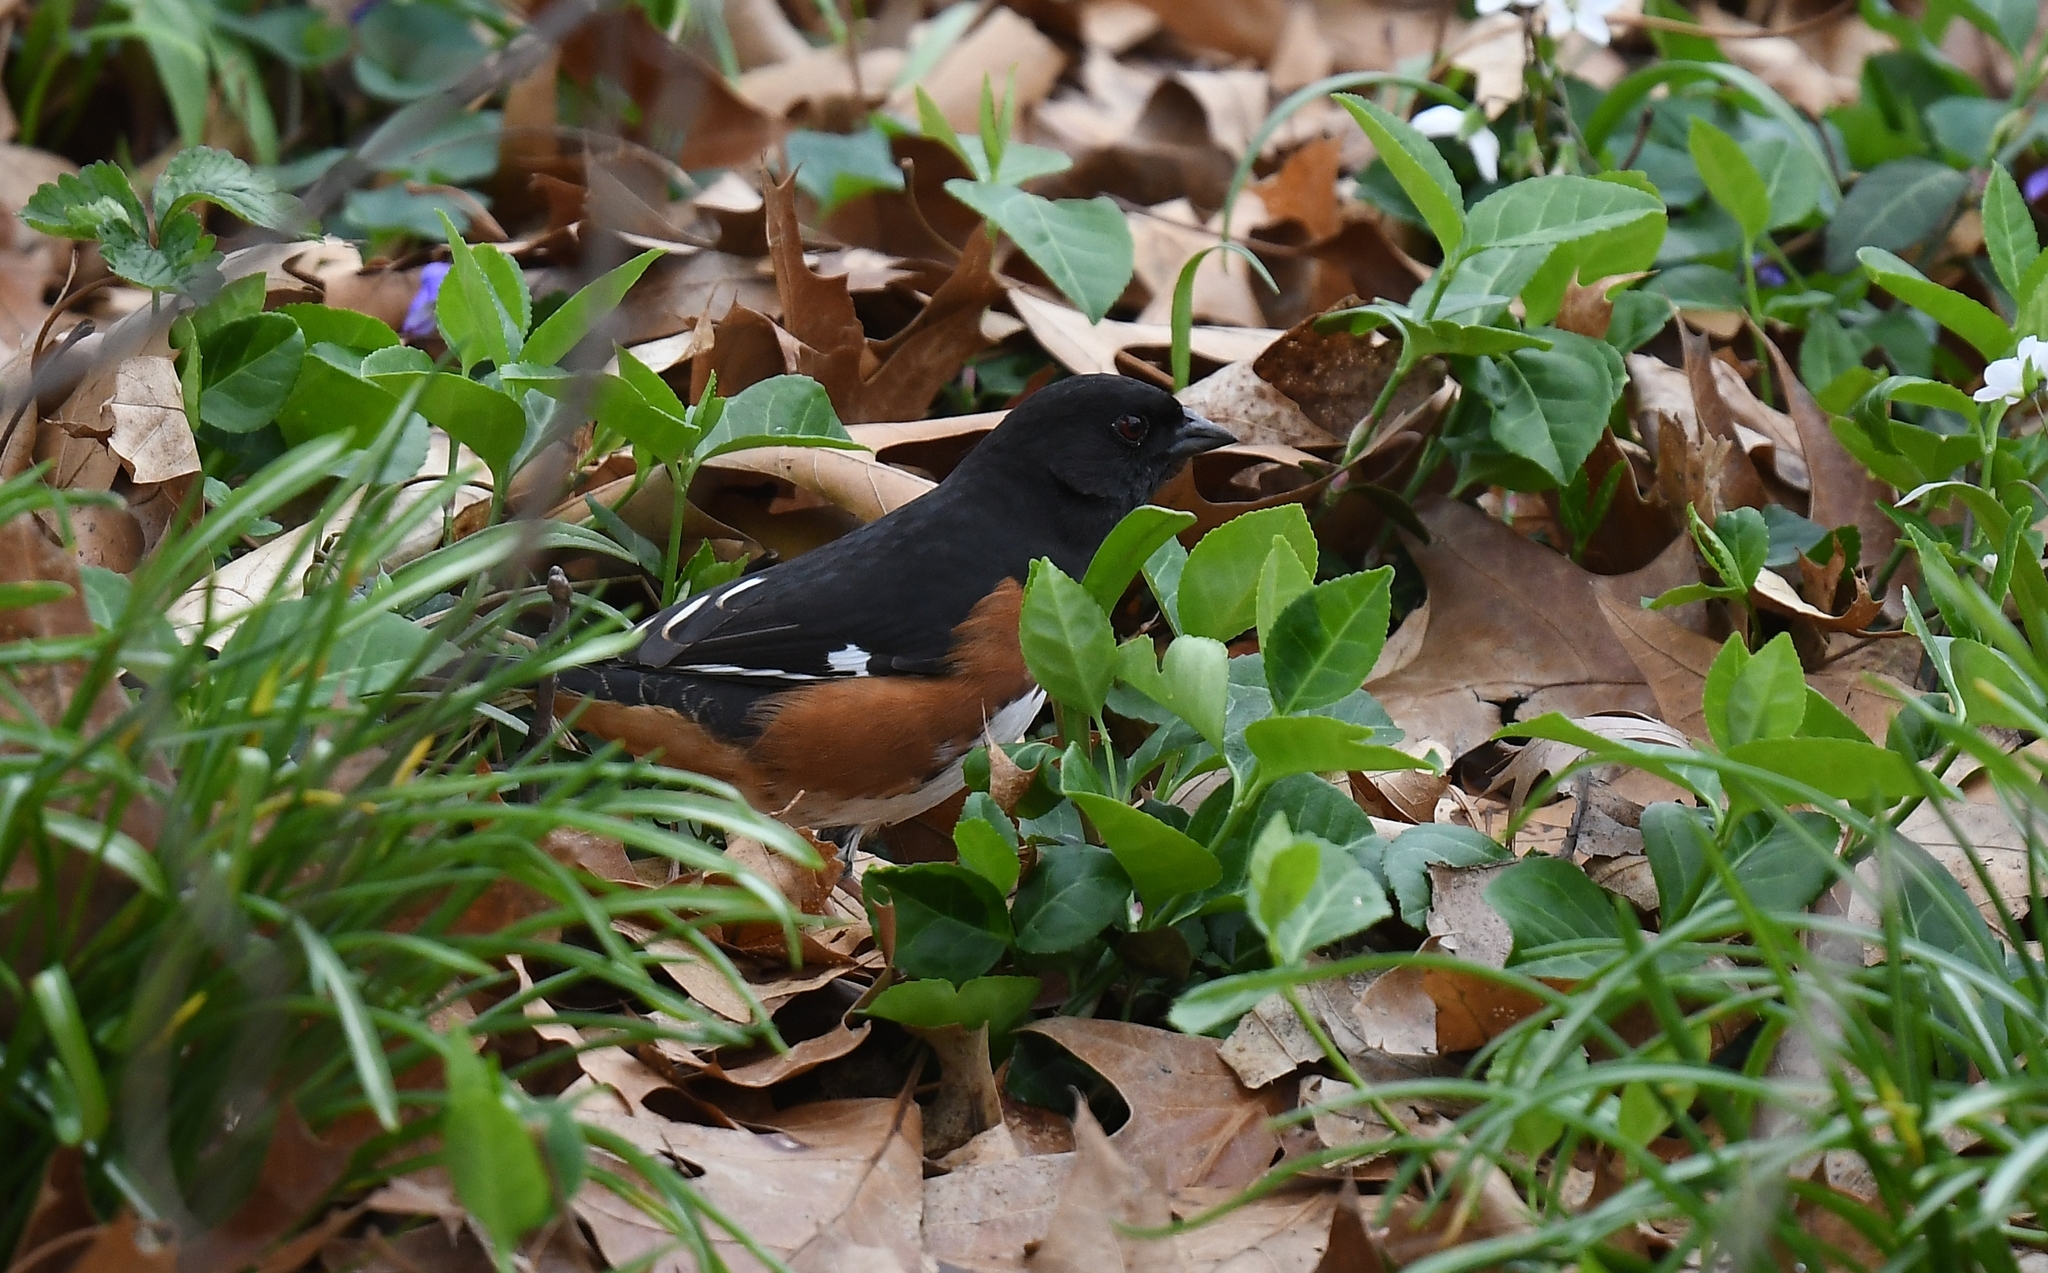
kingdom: Animalia
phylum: Chordata
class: Aves
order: Passeriformes
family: Passerellidae
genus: Pipilo
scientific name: Pipilo erythrophthalmus
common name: Eastern towhee
